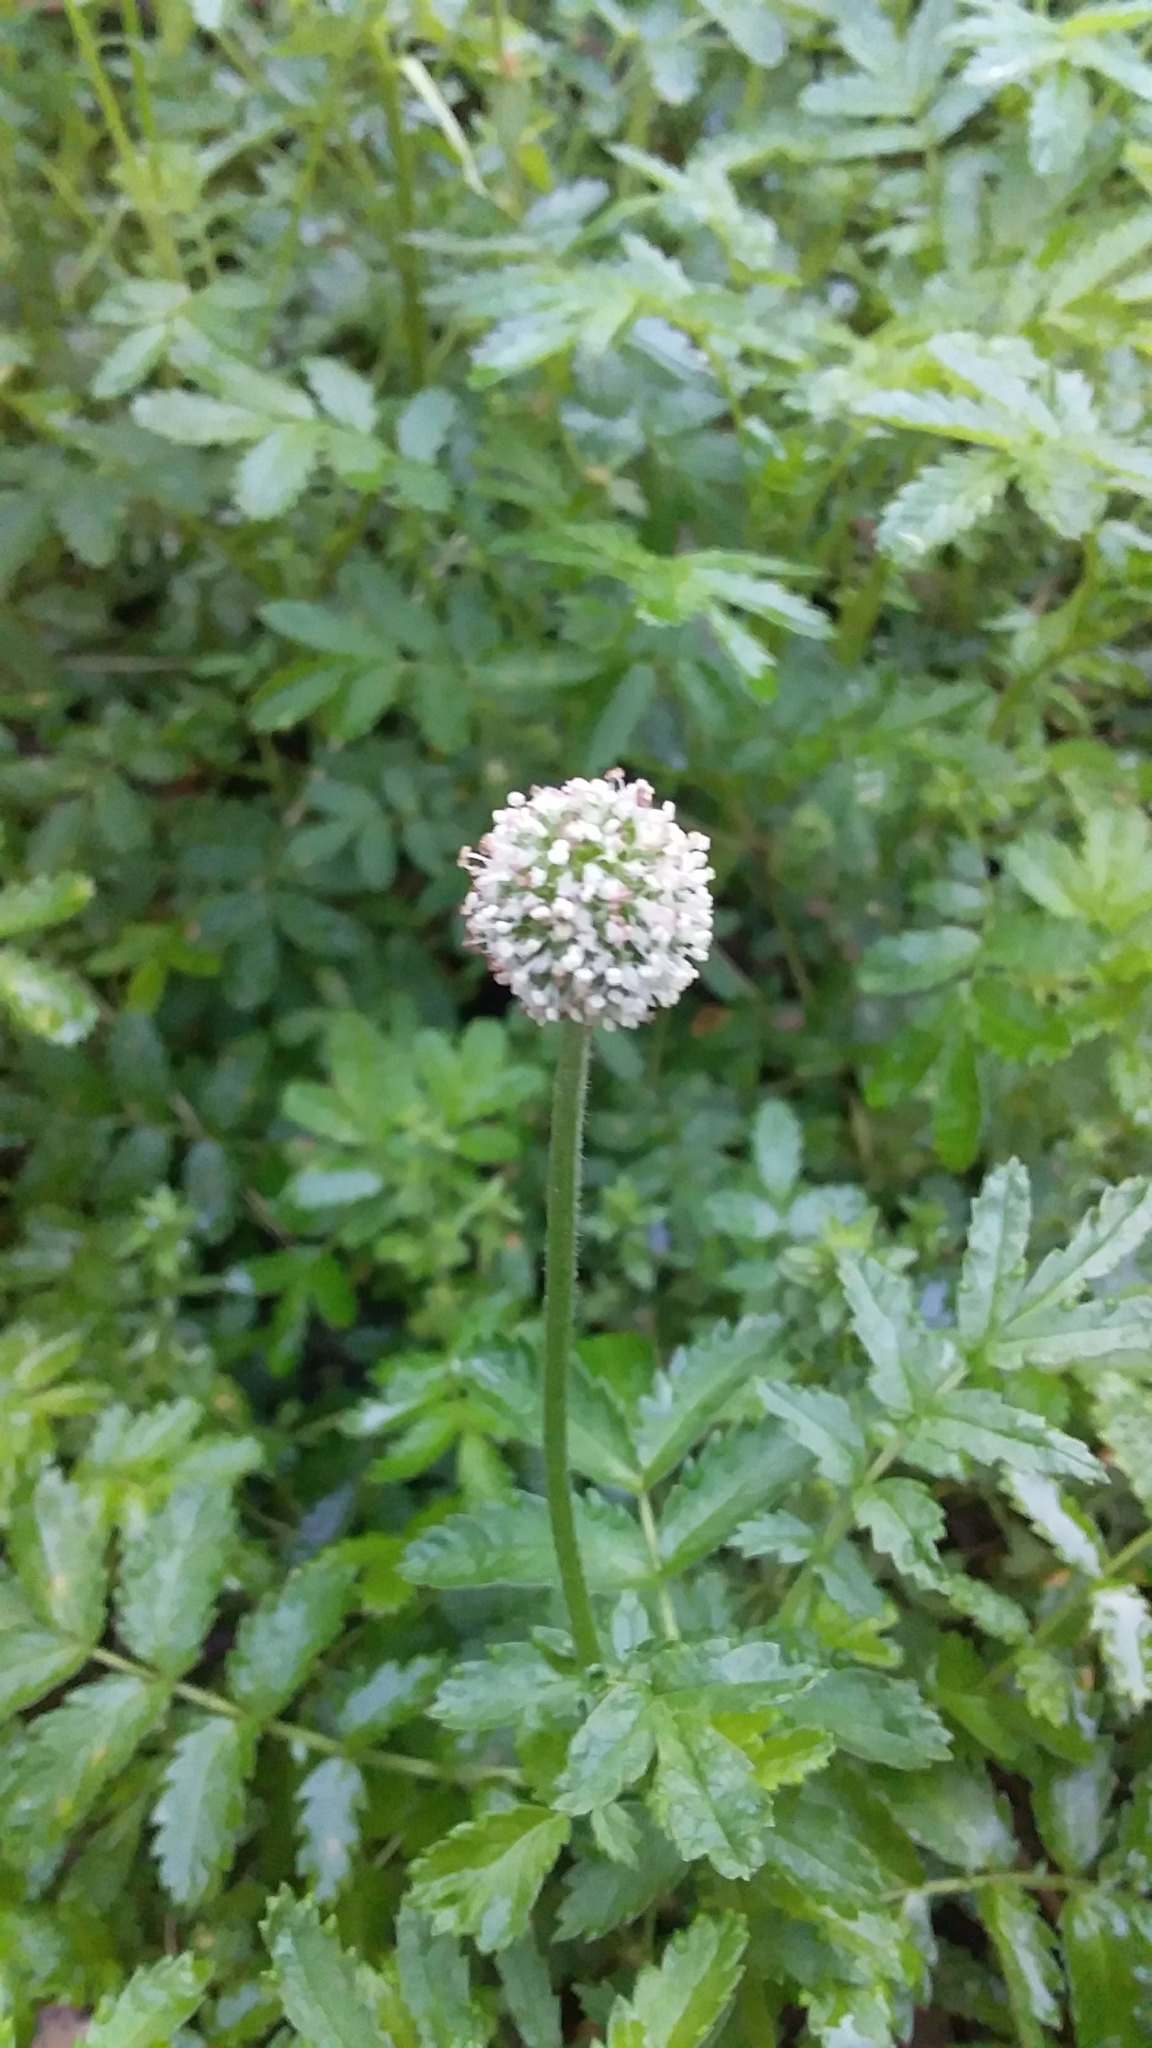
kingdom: Plantae
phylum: Tracheophyta
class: Magnoliopsida
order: Rosales
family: Rosaceae
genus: Acaena
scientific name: Acaena novae-zelandiae
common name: Pirri-pirri-bur
